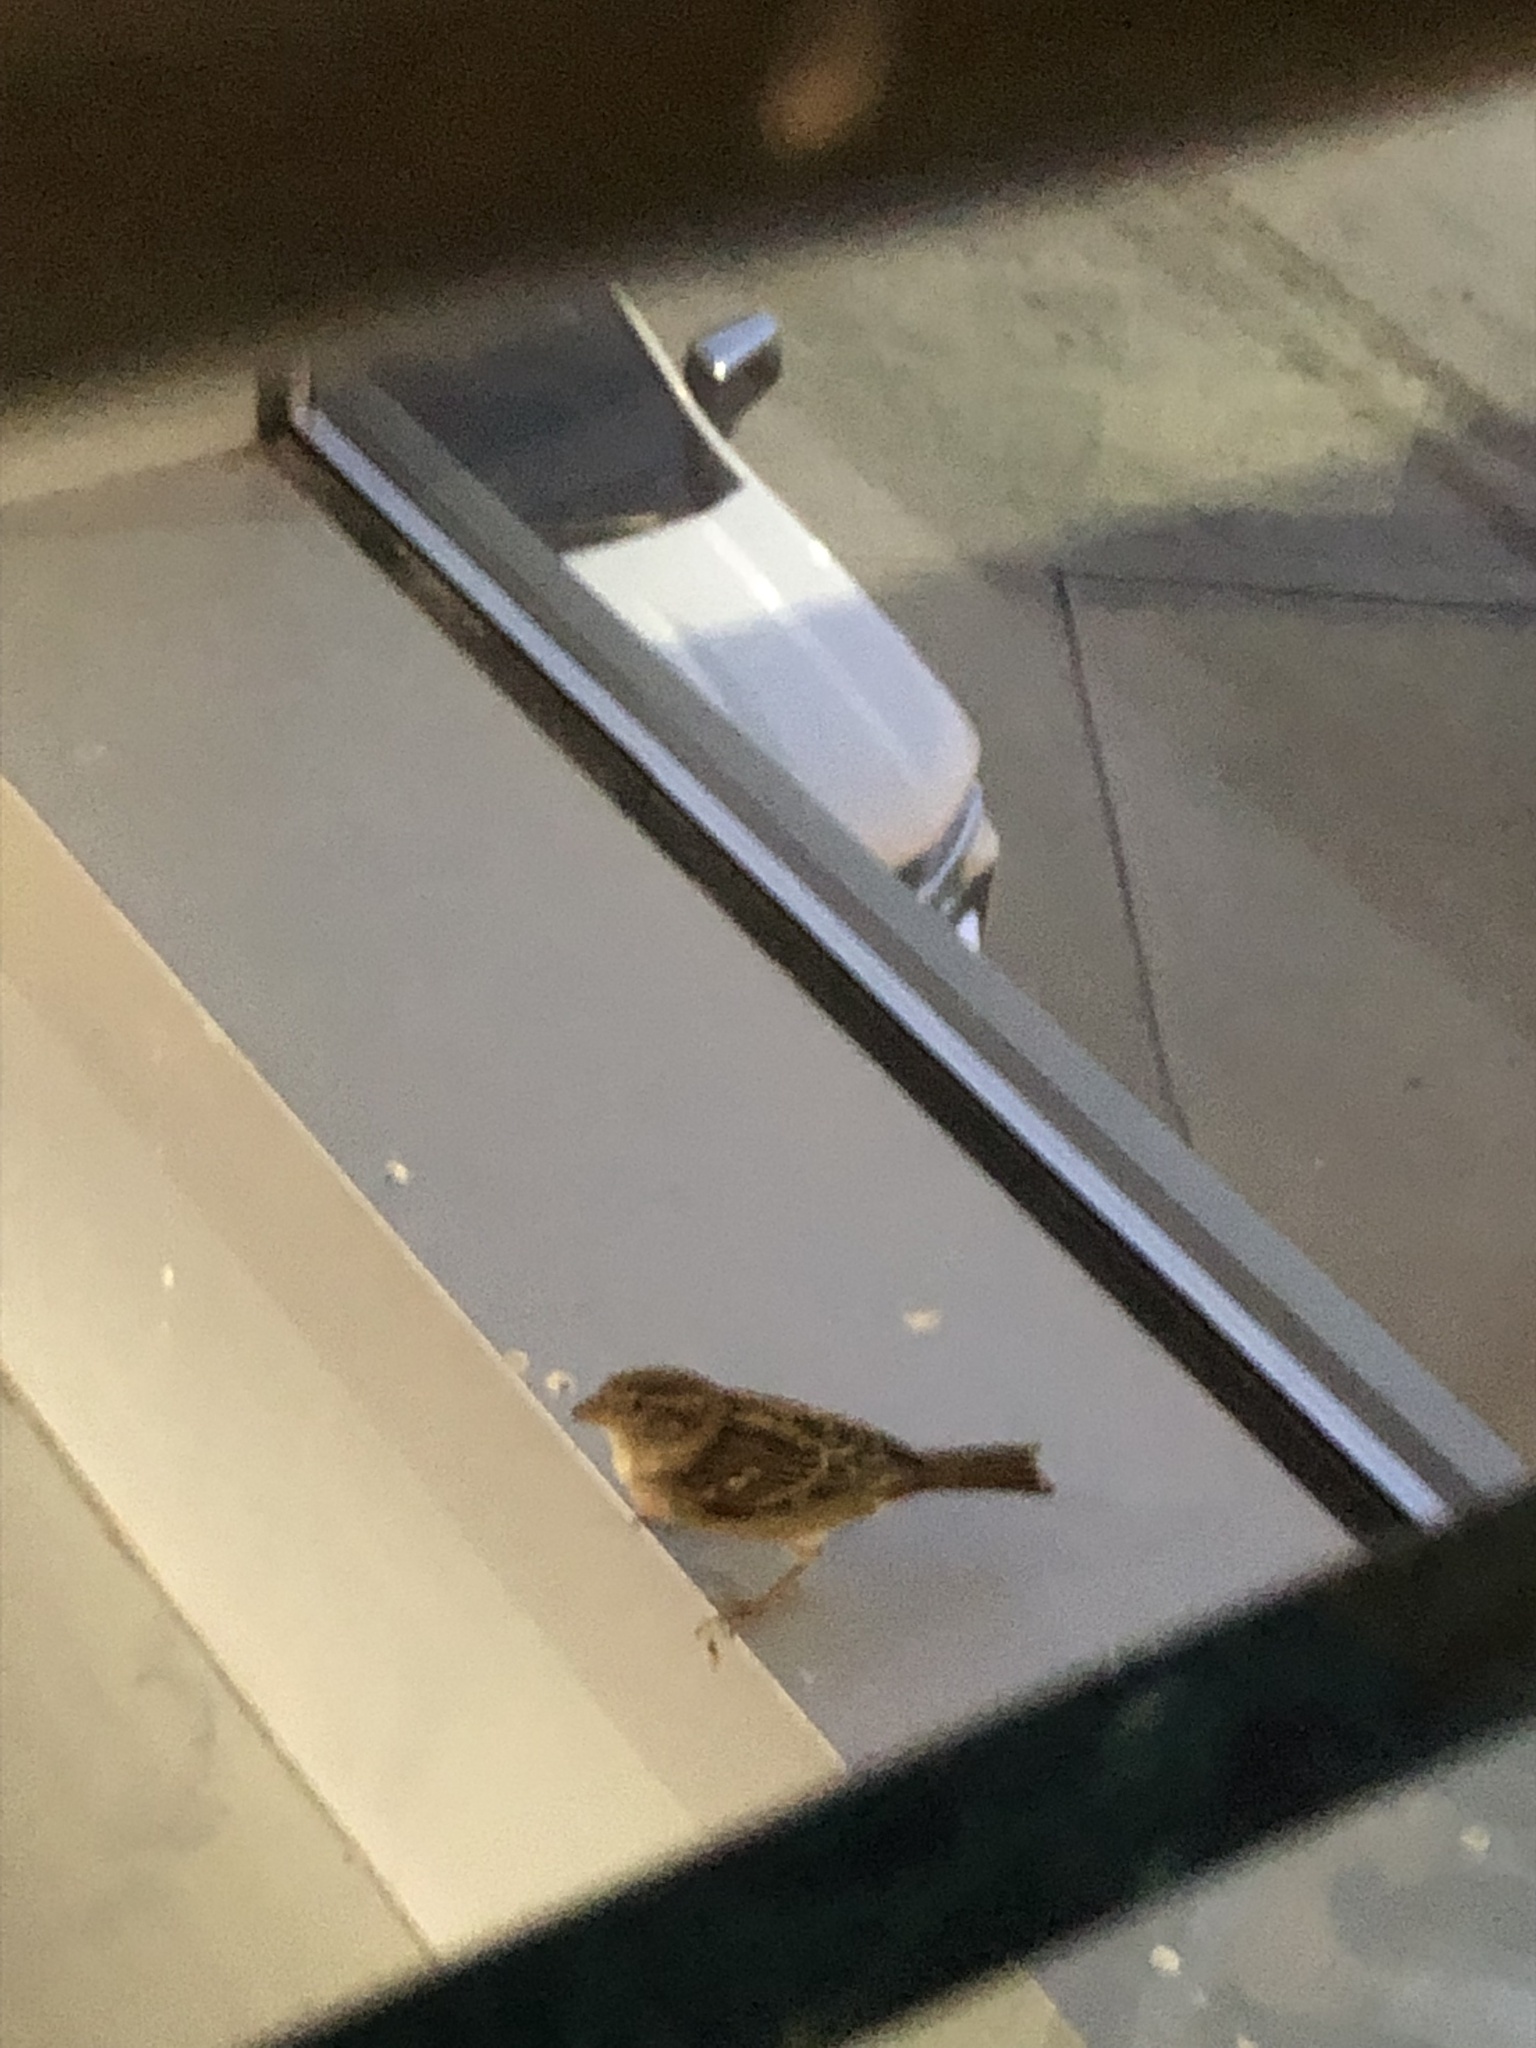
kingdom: Animalia
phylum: Chordata
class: Aves
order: Passeriformes
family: Passeridae
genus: Passer
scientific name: Passer domesticus
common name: House sparrow
